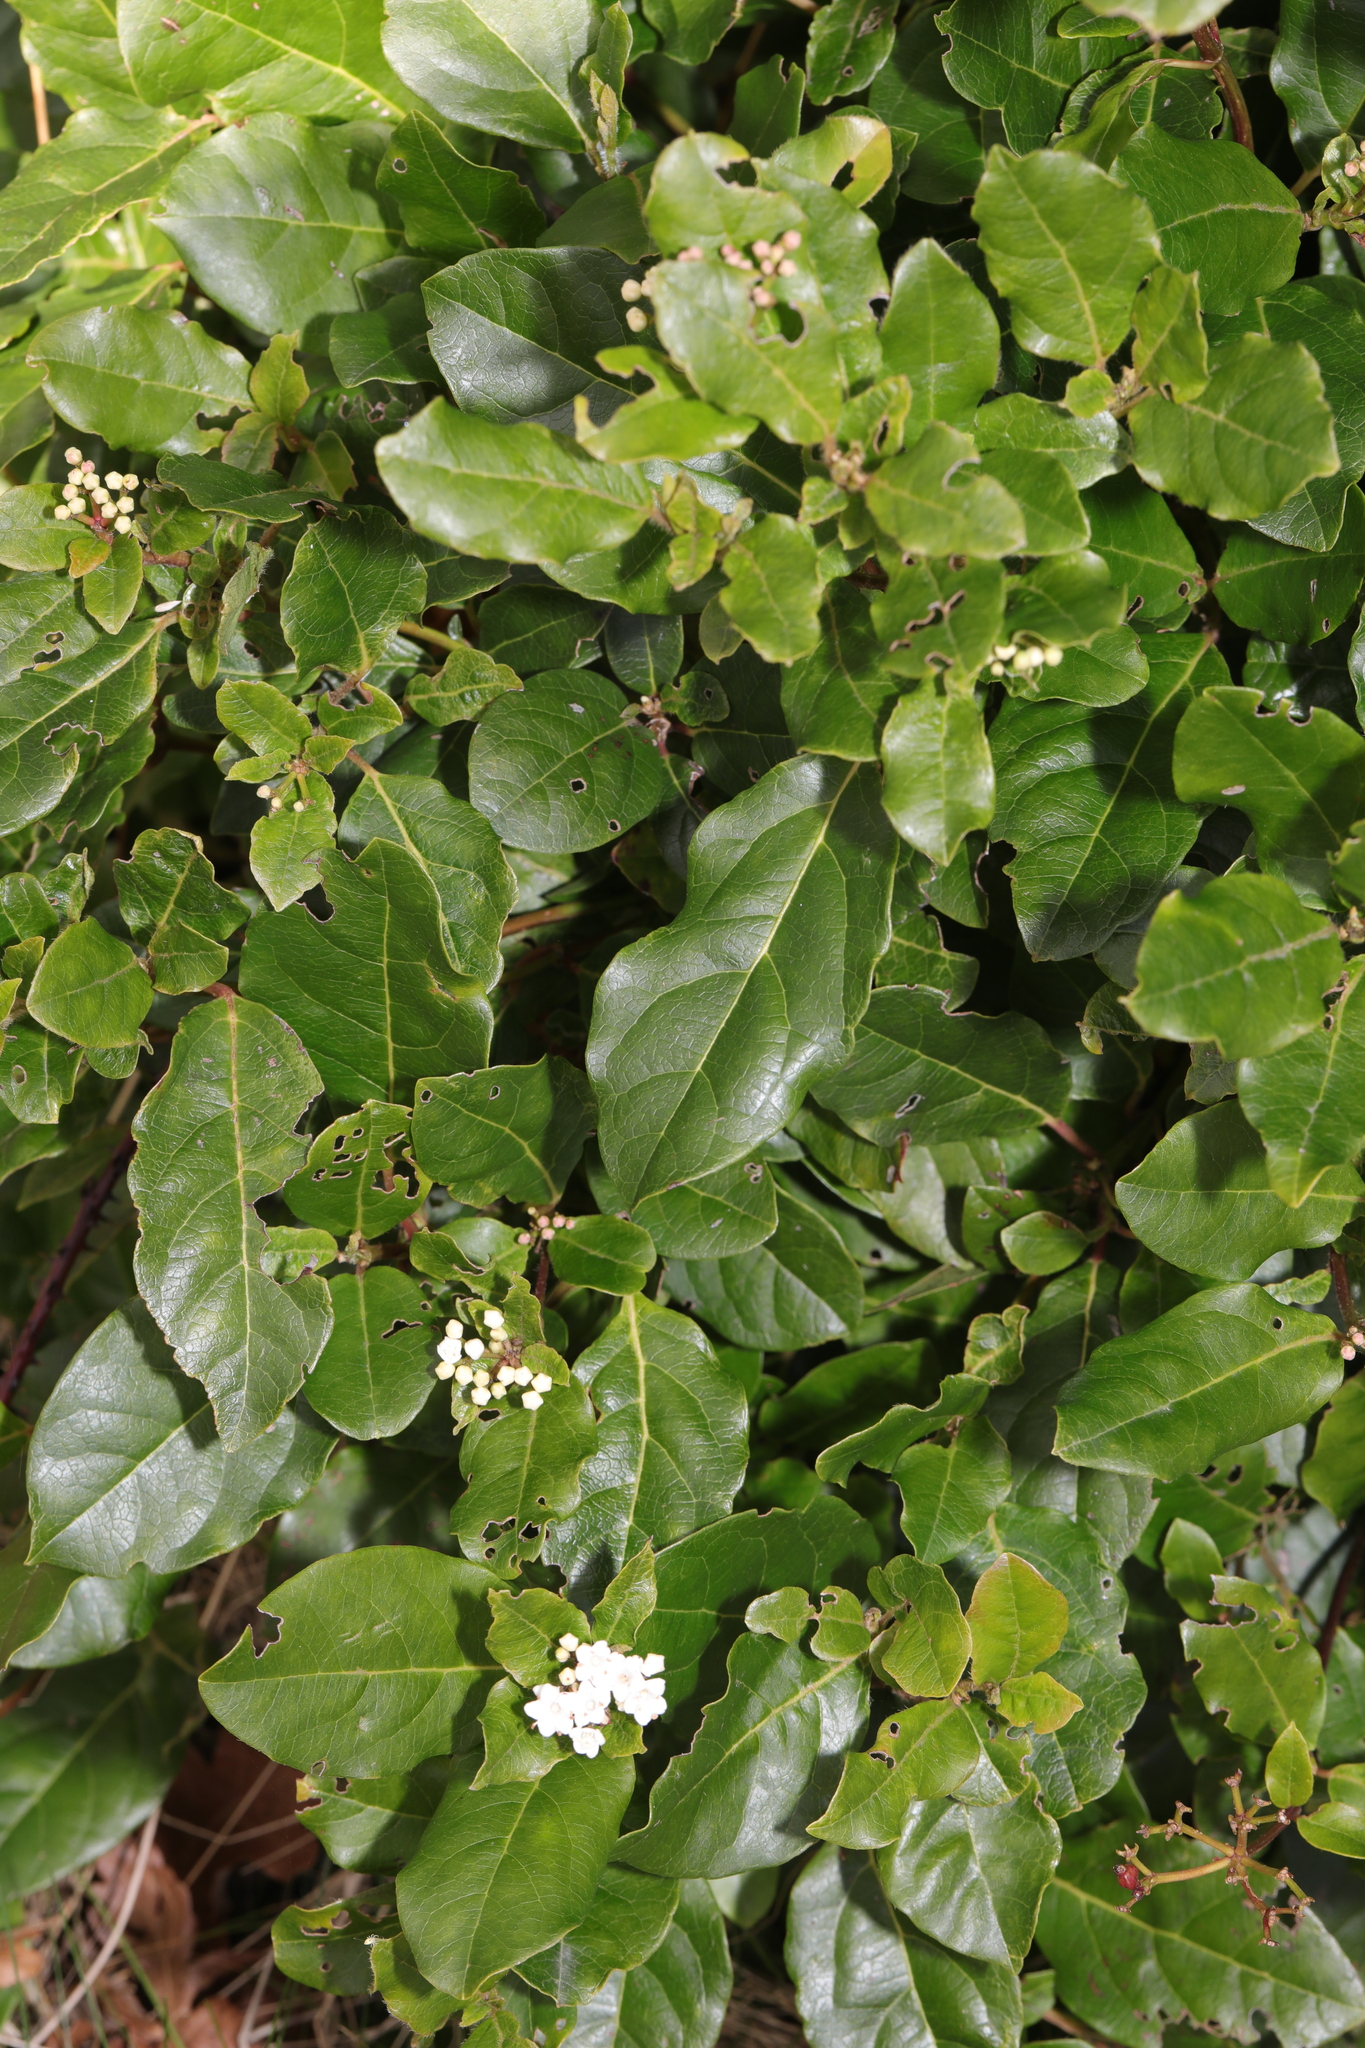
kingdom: Plantae
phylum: Tracheophyta
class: Magnoliopsida
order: Dipsacales
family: Viburnaceae
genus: Viburnum
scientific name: Viburnum tinus
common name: Laurustinus
